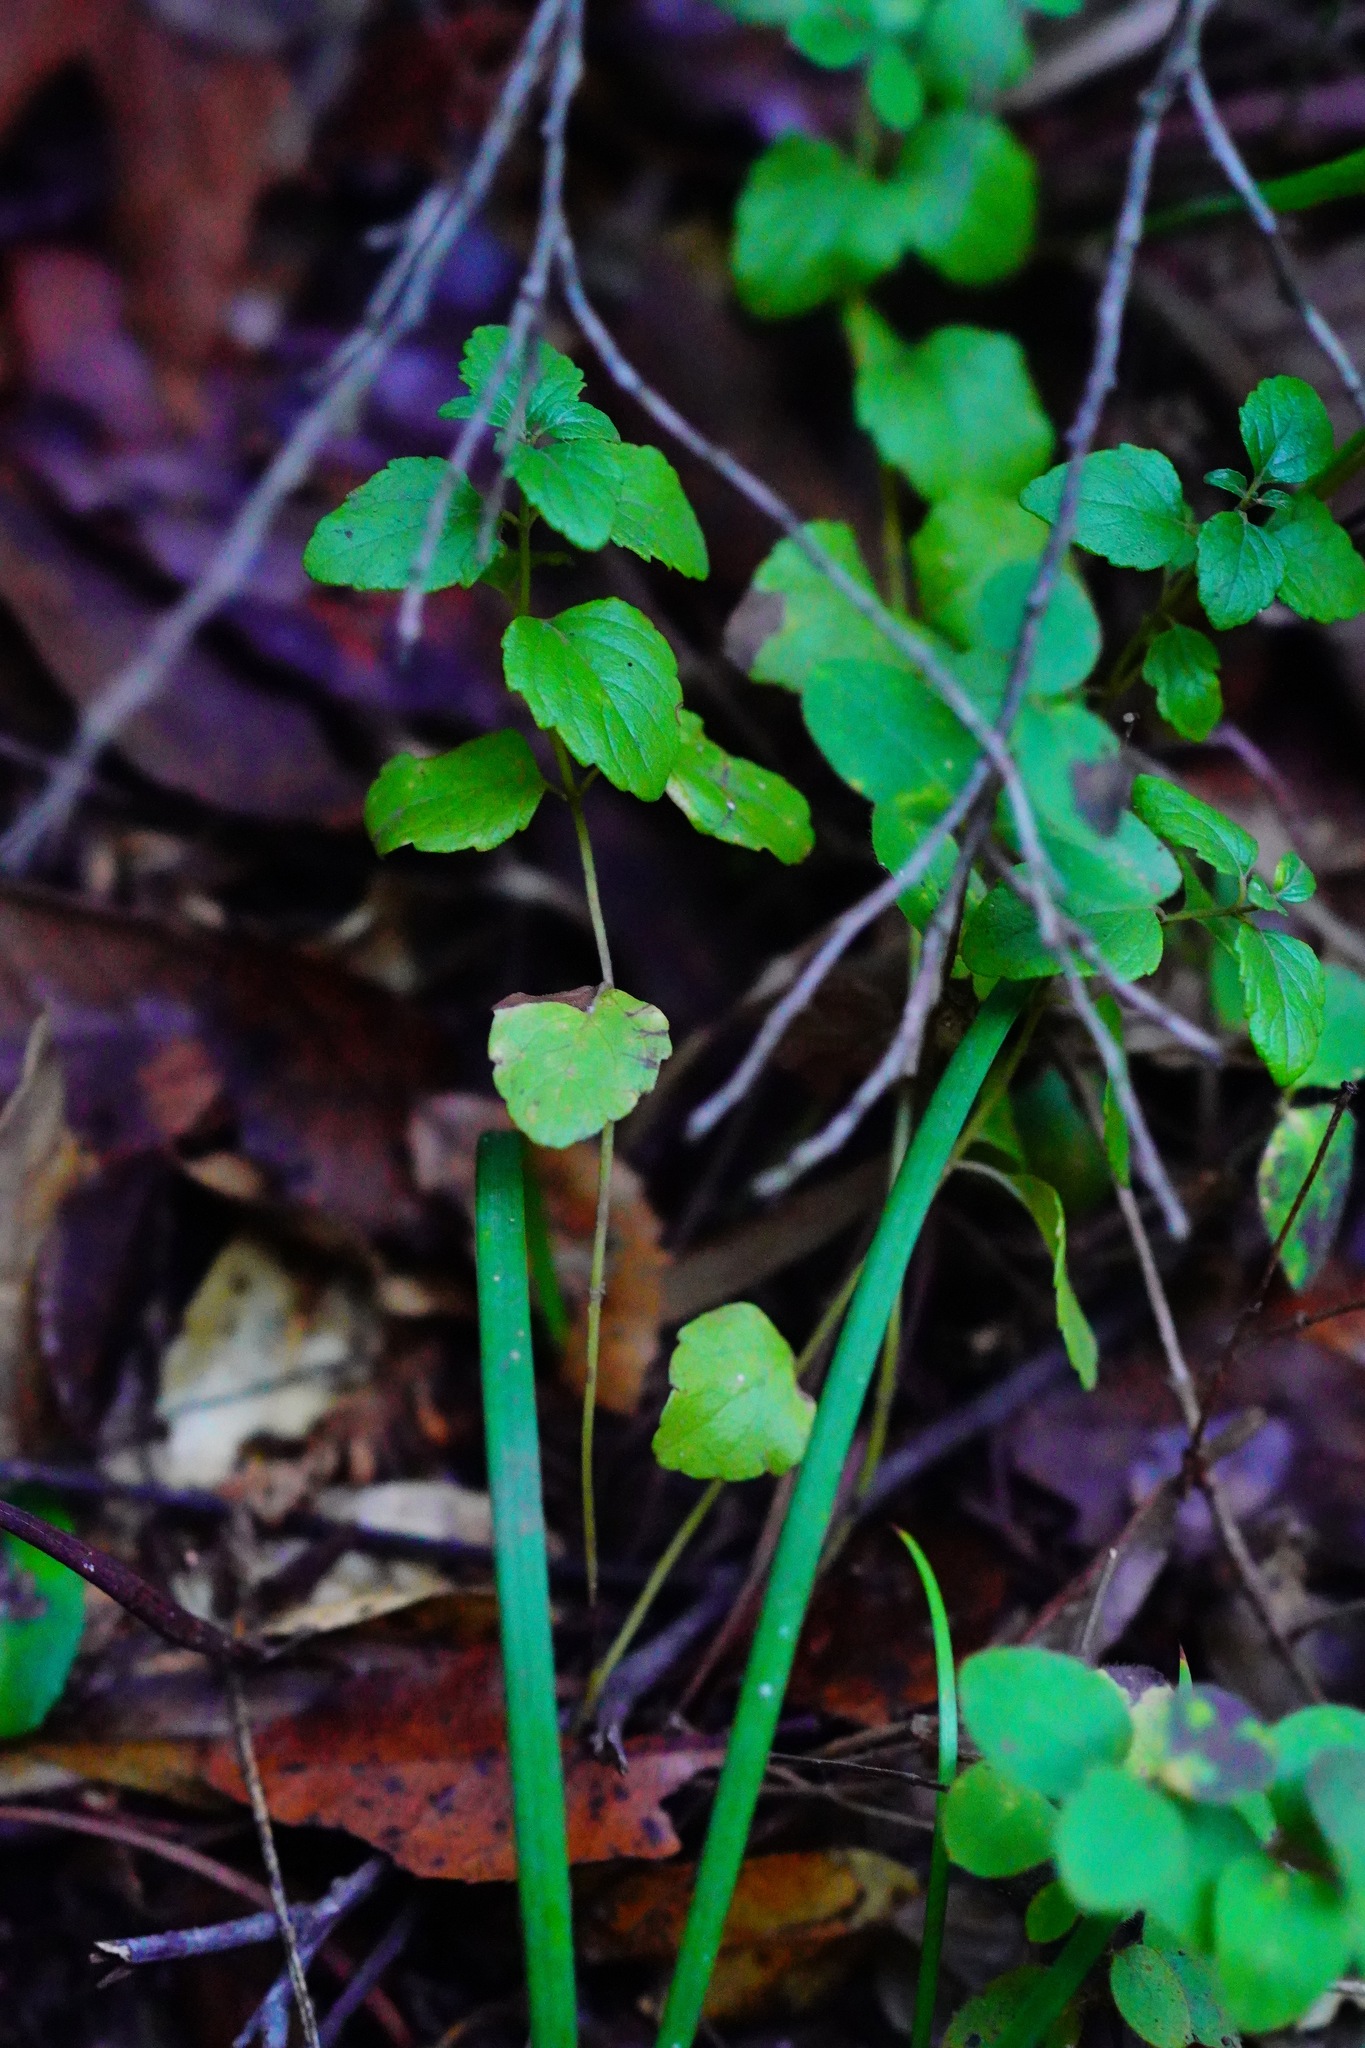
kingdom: Plantae
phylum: Tracheophyta
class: Magnoliopsida
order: Lamiales
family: Lamiaceae
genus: Micromeria
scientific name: Micromeria douglasii
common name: Yerba buena
